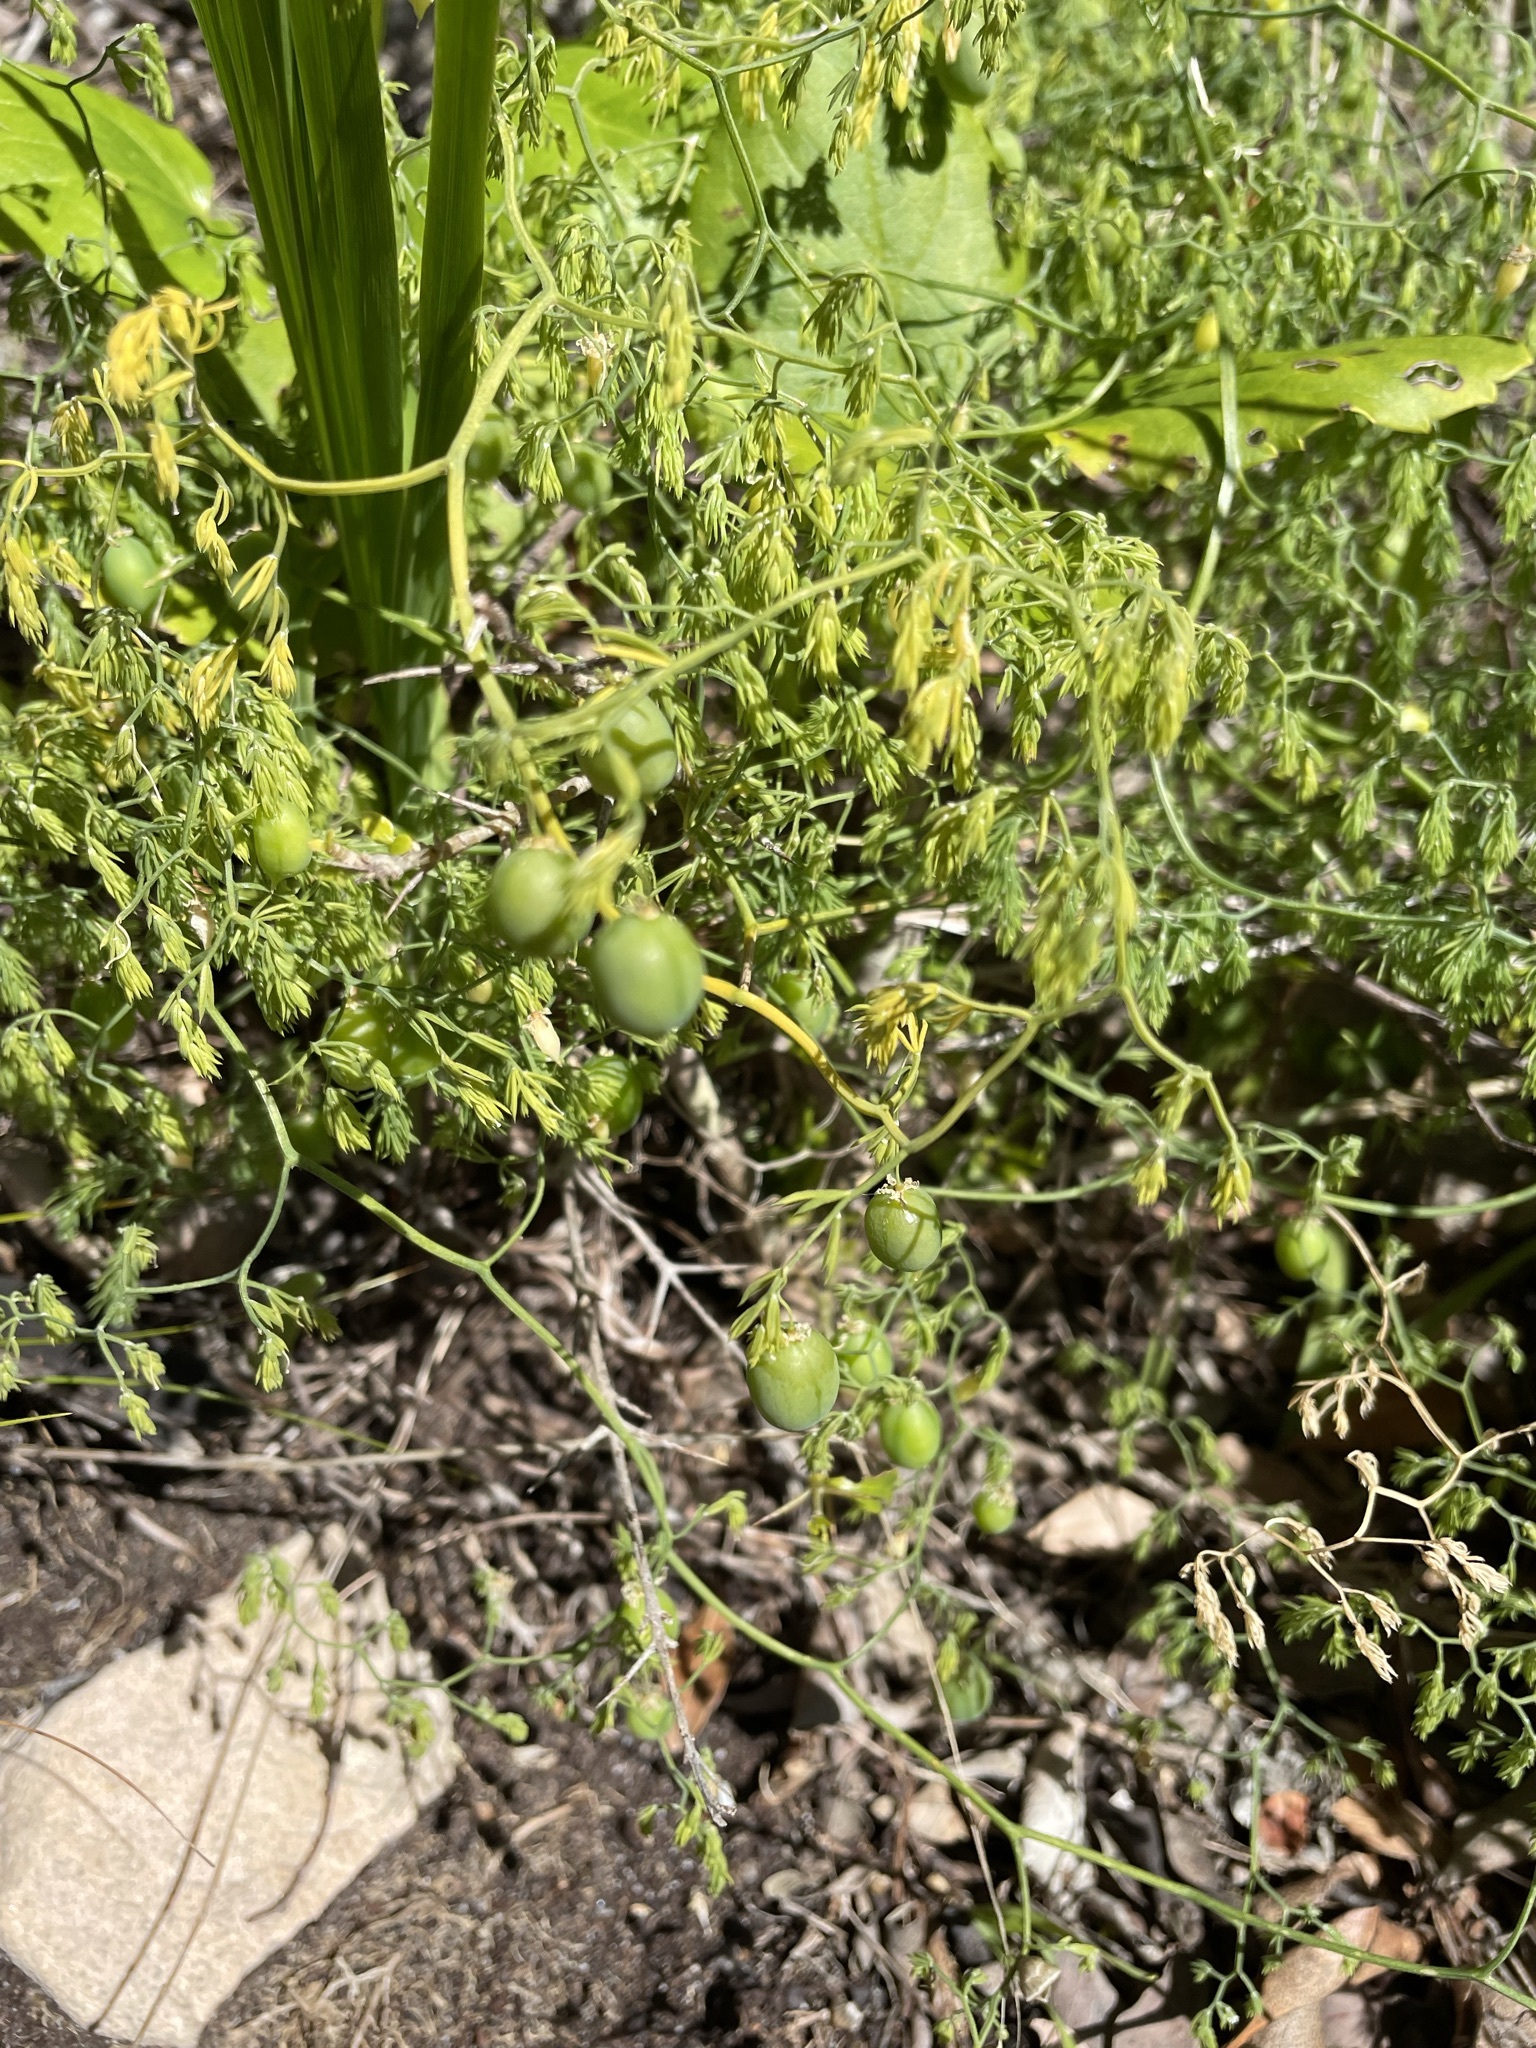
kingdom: Plantae
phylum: Tracheophyta
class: Liliopsida
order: Asparagales
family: Asparagaceae
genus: Asparagus
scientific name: Asparagus declinatus
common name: Bridal-creeper
